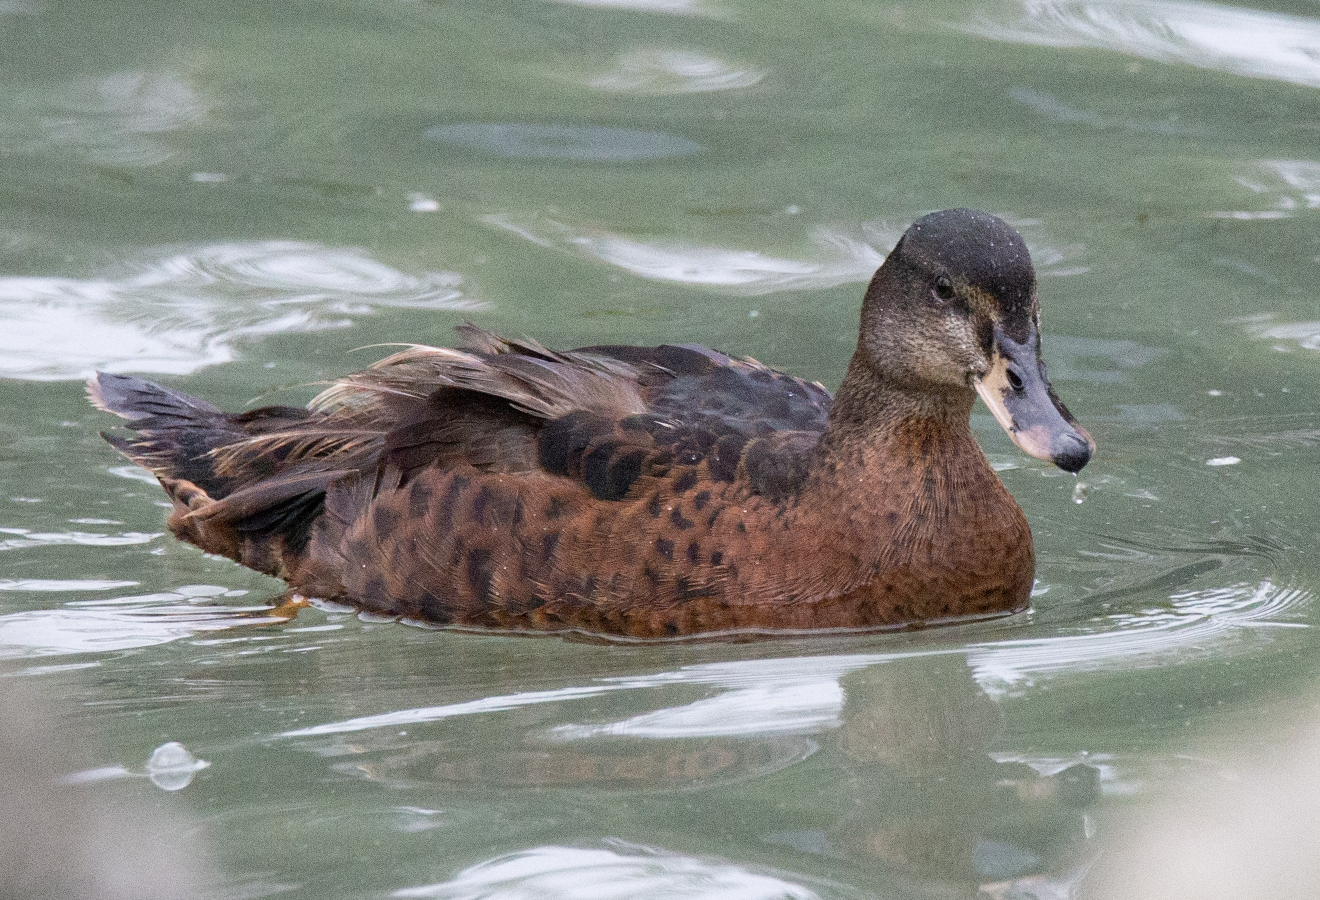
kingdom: Animalia
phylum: Chordata
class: Aves
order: Anseriformes
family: Anatidae
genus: Anas
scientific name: Anas platyrhynchos
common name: Mallard
